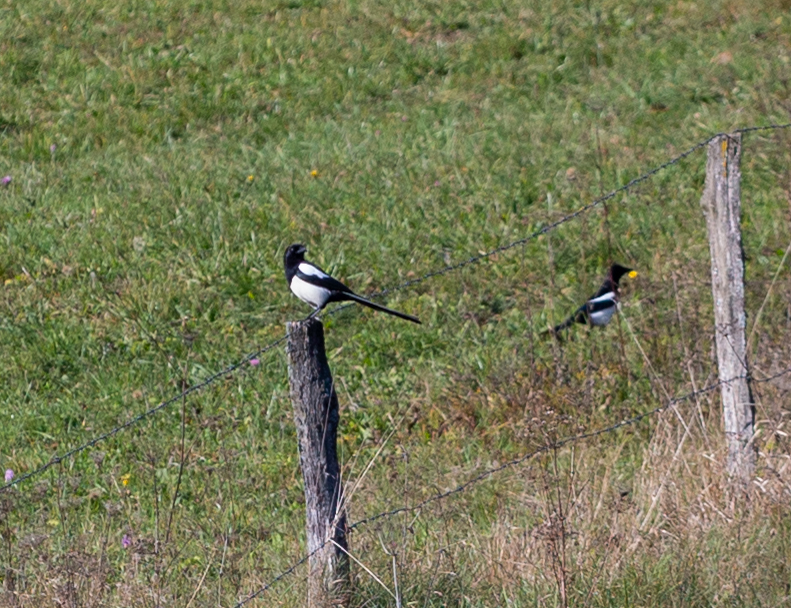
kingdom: Animalia
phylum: Chordata
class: Aves
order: Passeriformes
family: Corvidae
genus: Pica
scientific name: Pica pica
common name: Eurasian magpie
